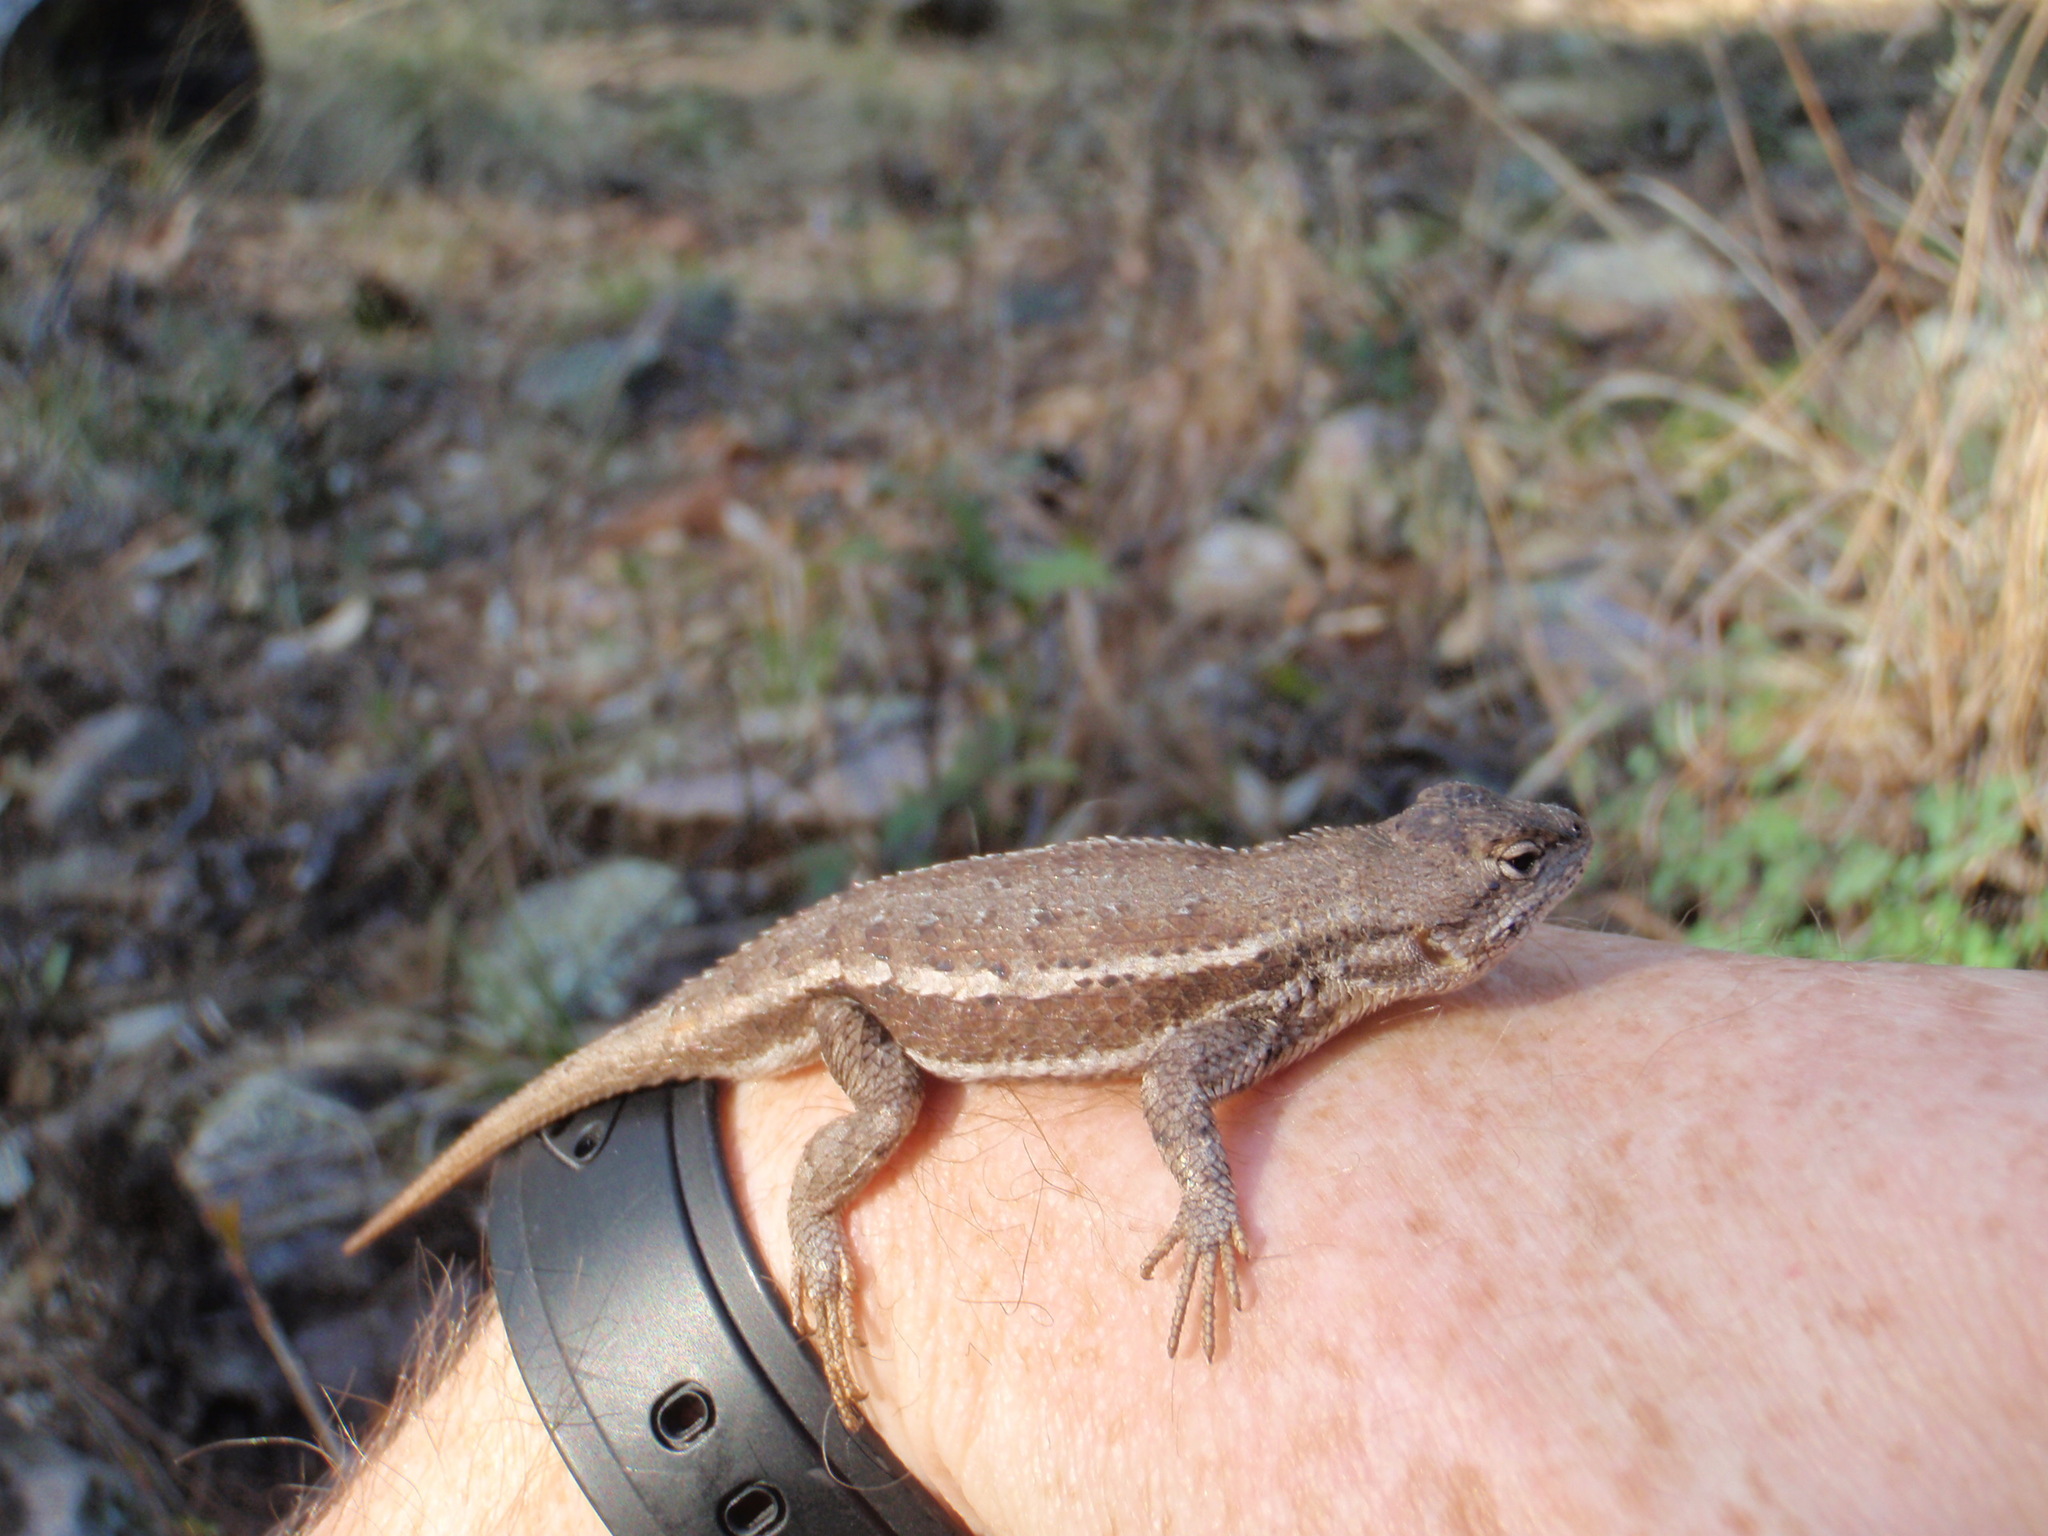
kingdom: Animalia
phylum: Chordata
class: Squamata
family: Phrynosomatidae
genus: Sceloporus
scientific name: Sceloporus virgatus
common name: Striped plateau lizard
